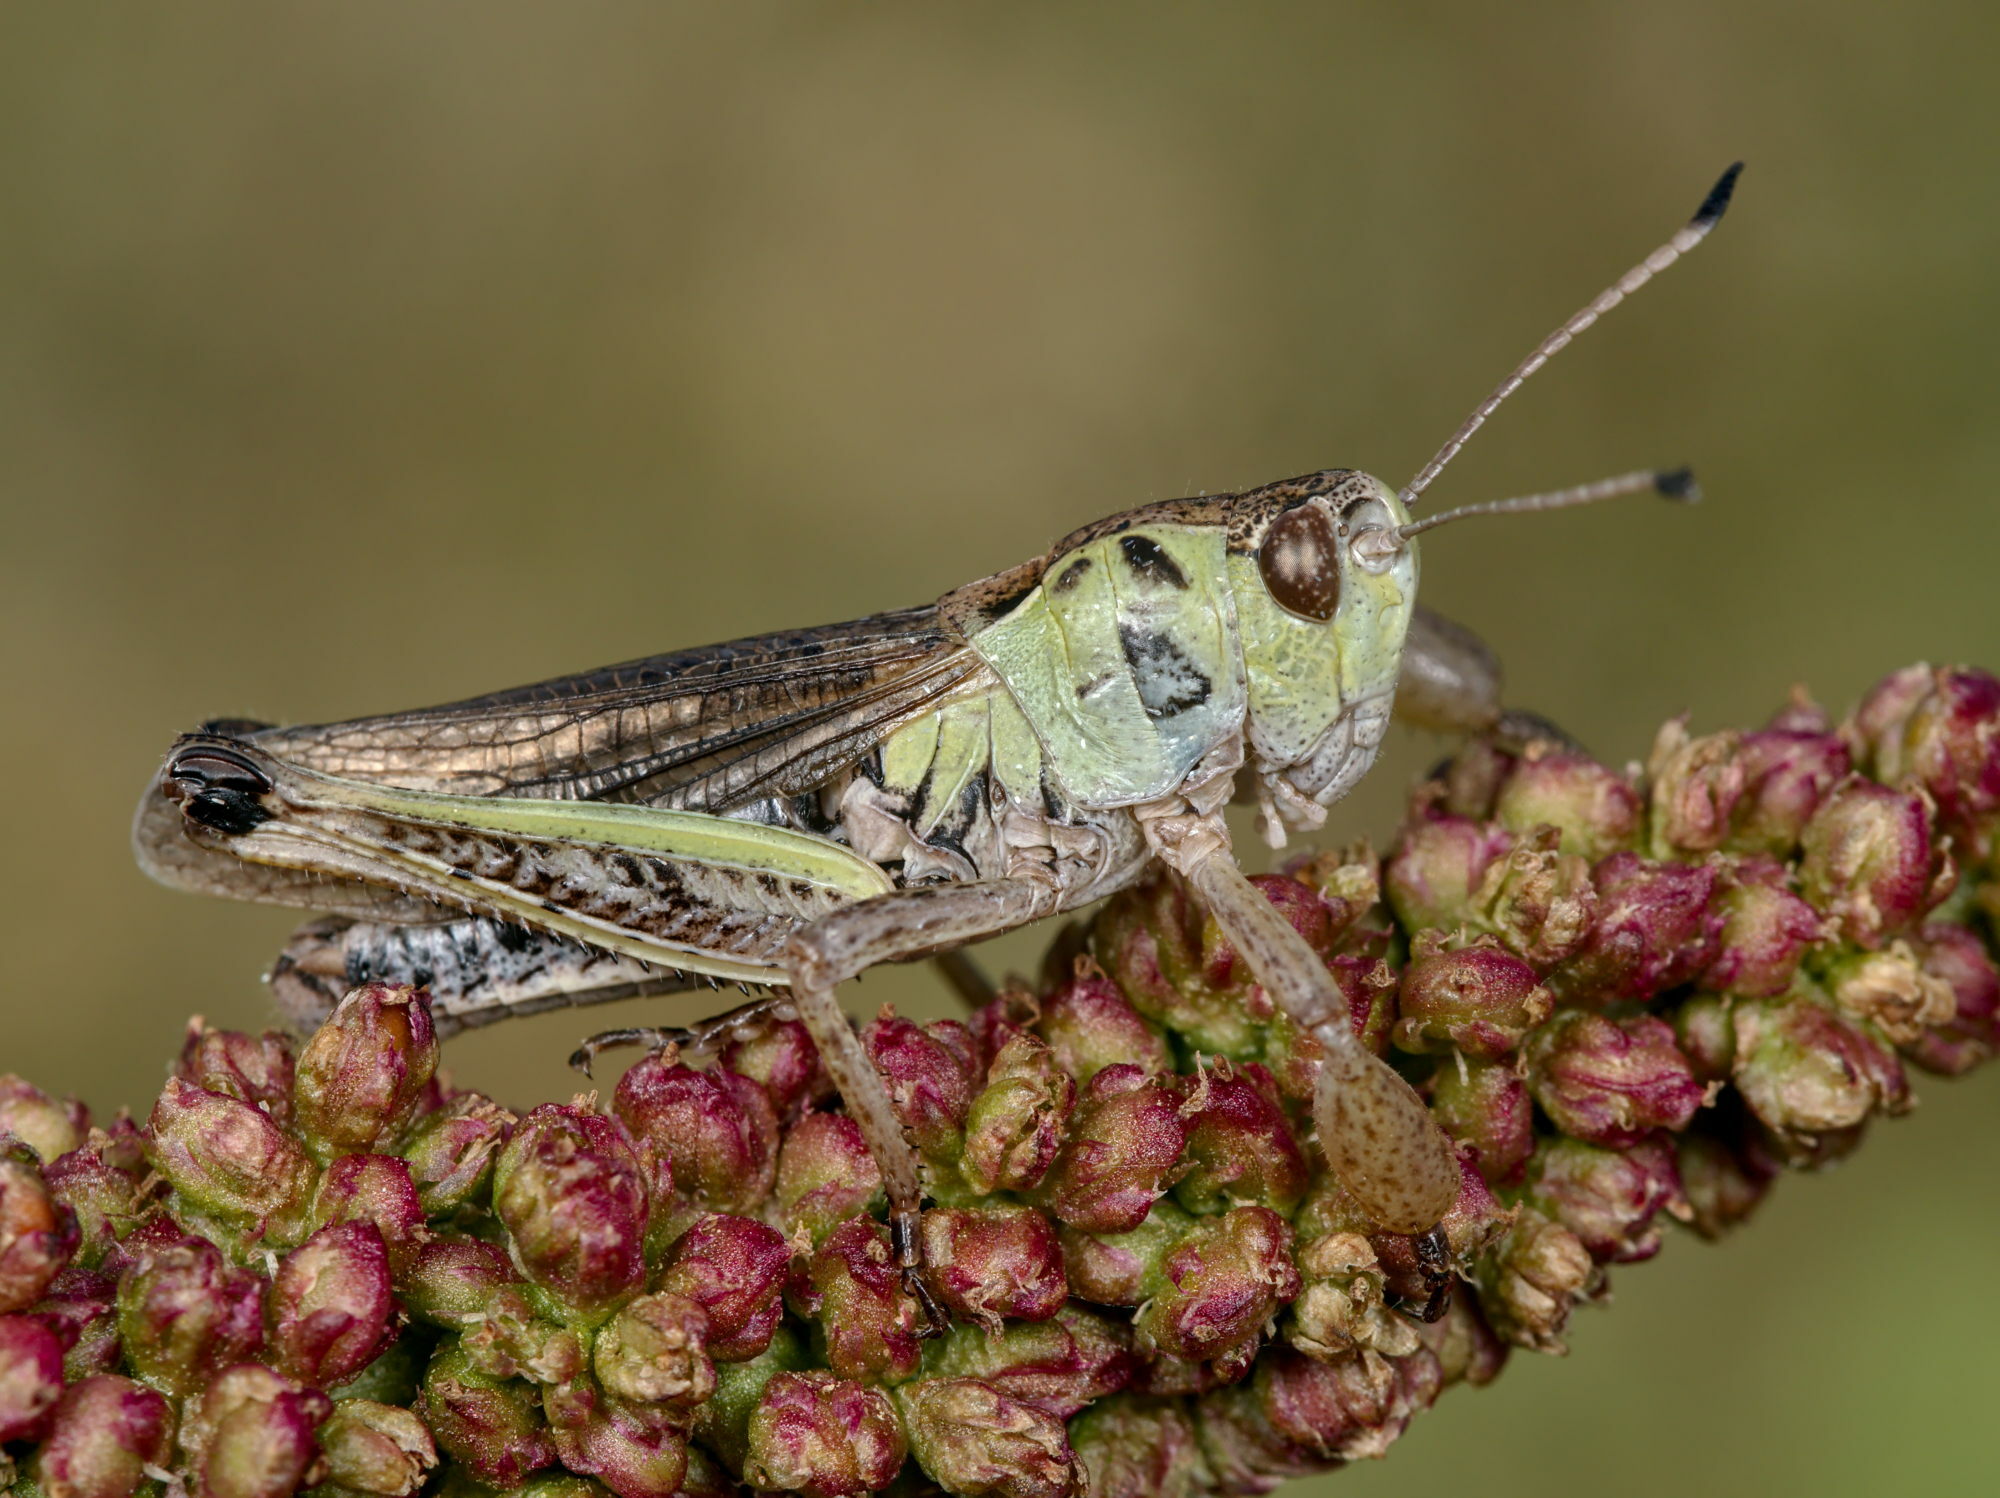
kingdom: Animalia
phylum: Arthropoda
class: Insecta
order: Orthoptera
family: Acrididae
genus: Gomphocerus
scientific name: Gomphocerus sibiricus
